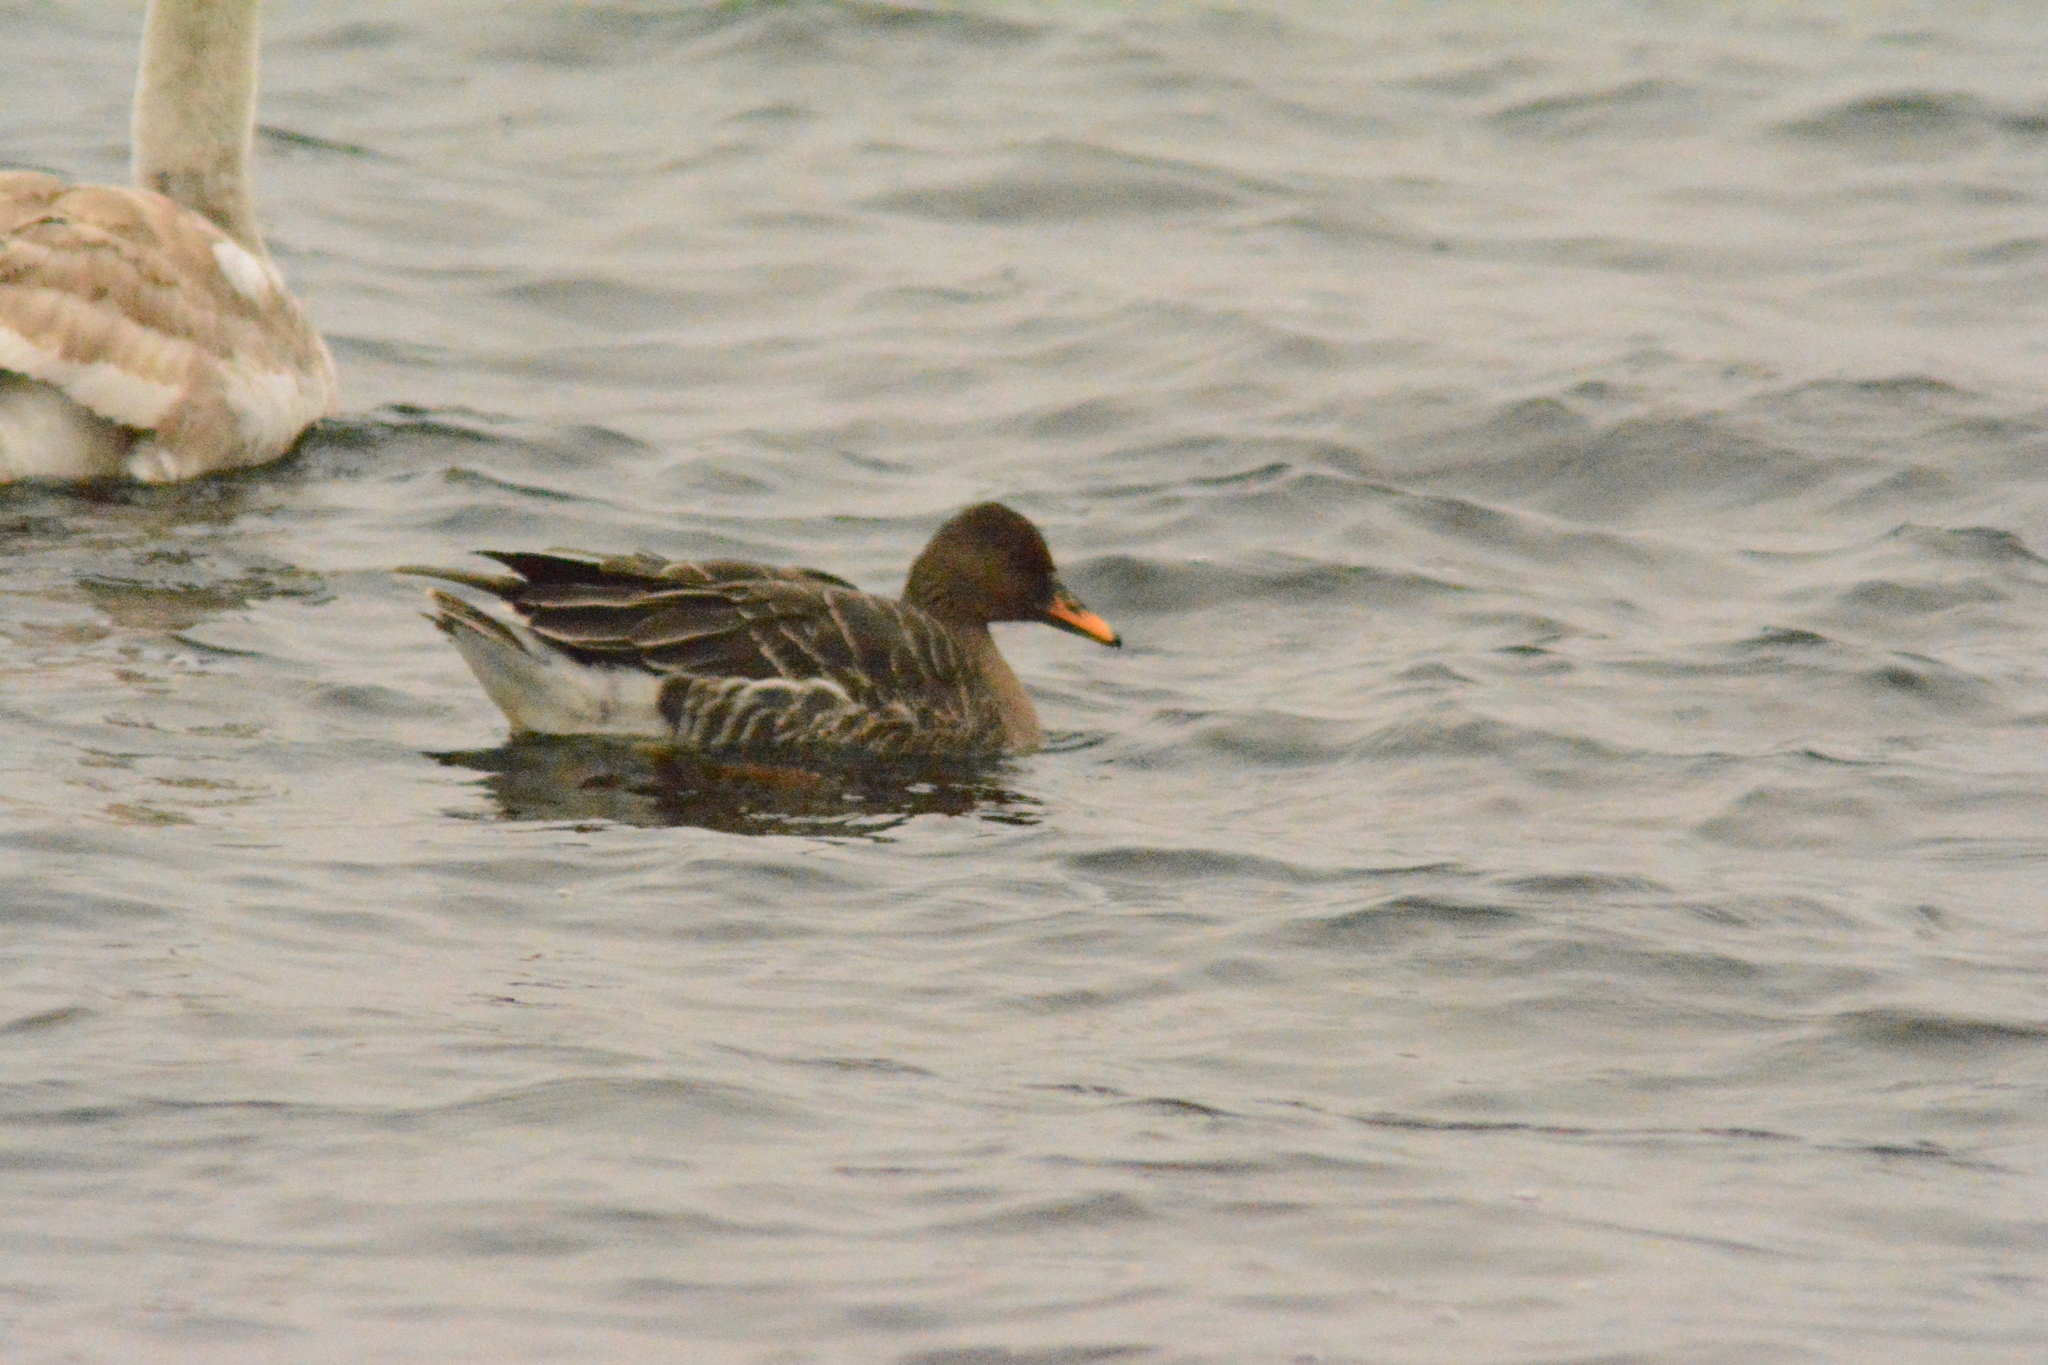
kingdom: Animalia
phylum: Chordata
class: Aves
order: Anseriformes
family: Anatidae
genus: Anser
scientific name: Anser fabalis
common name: Bean goose
